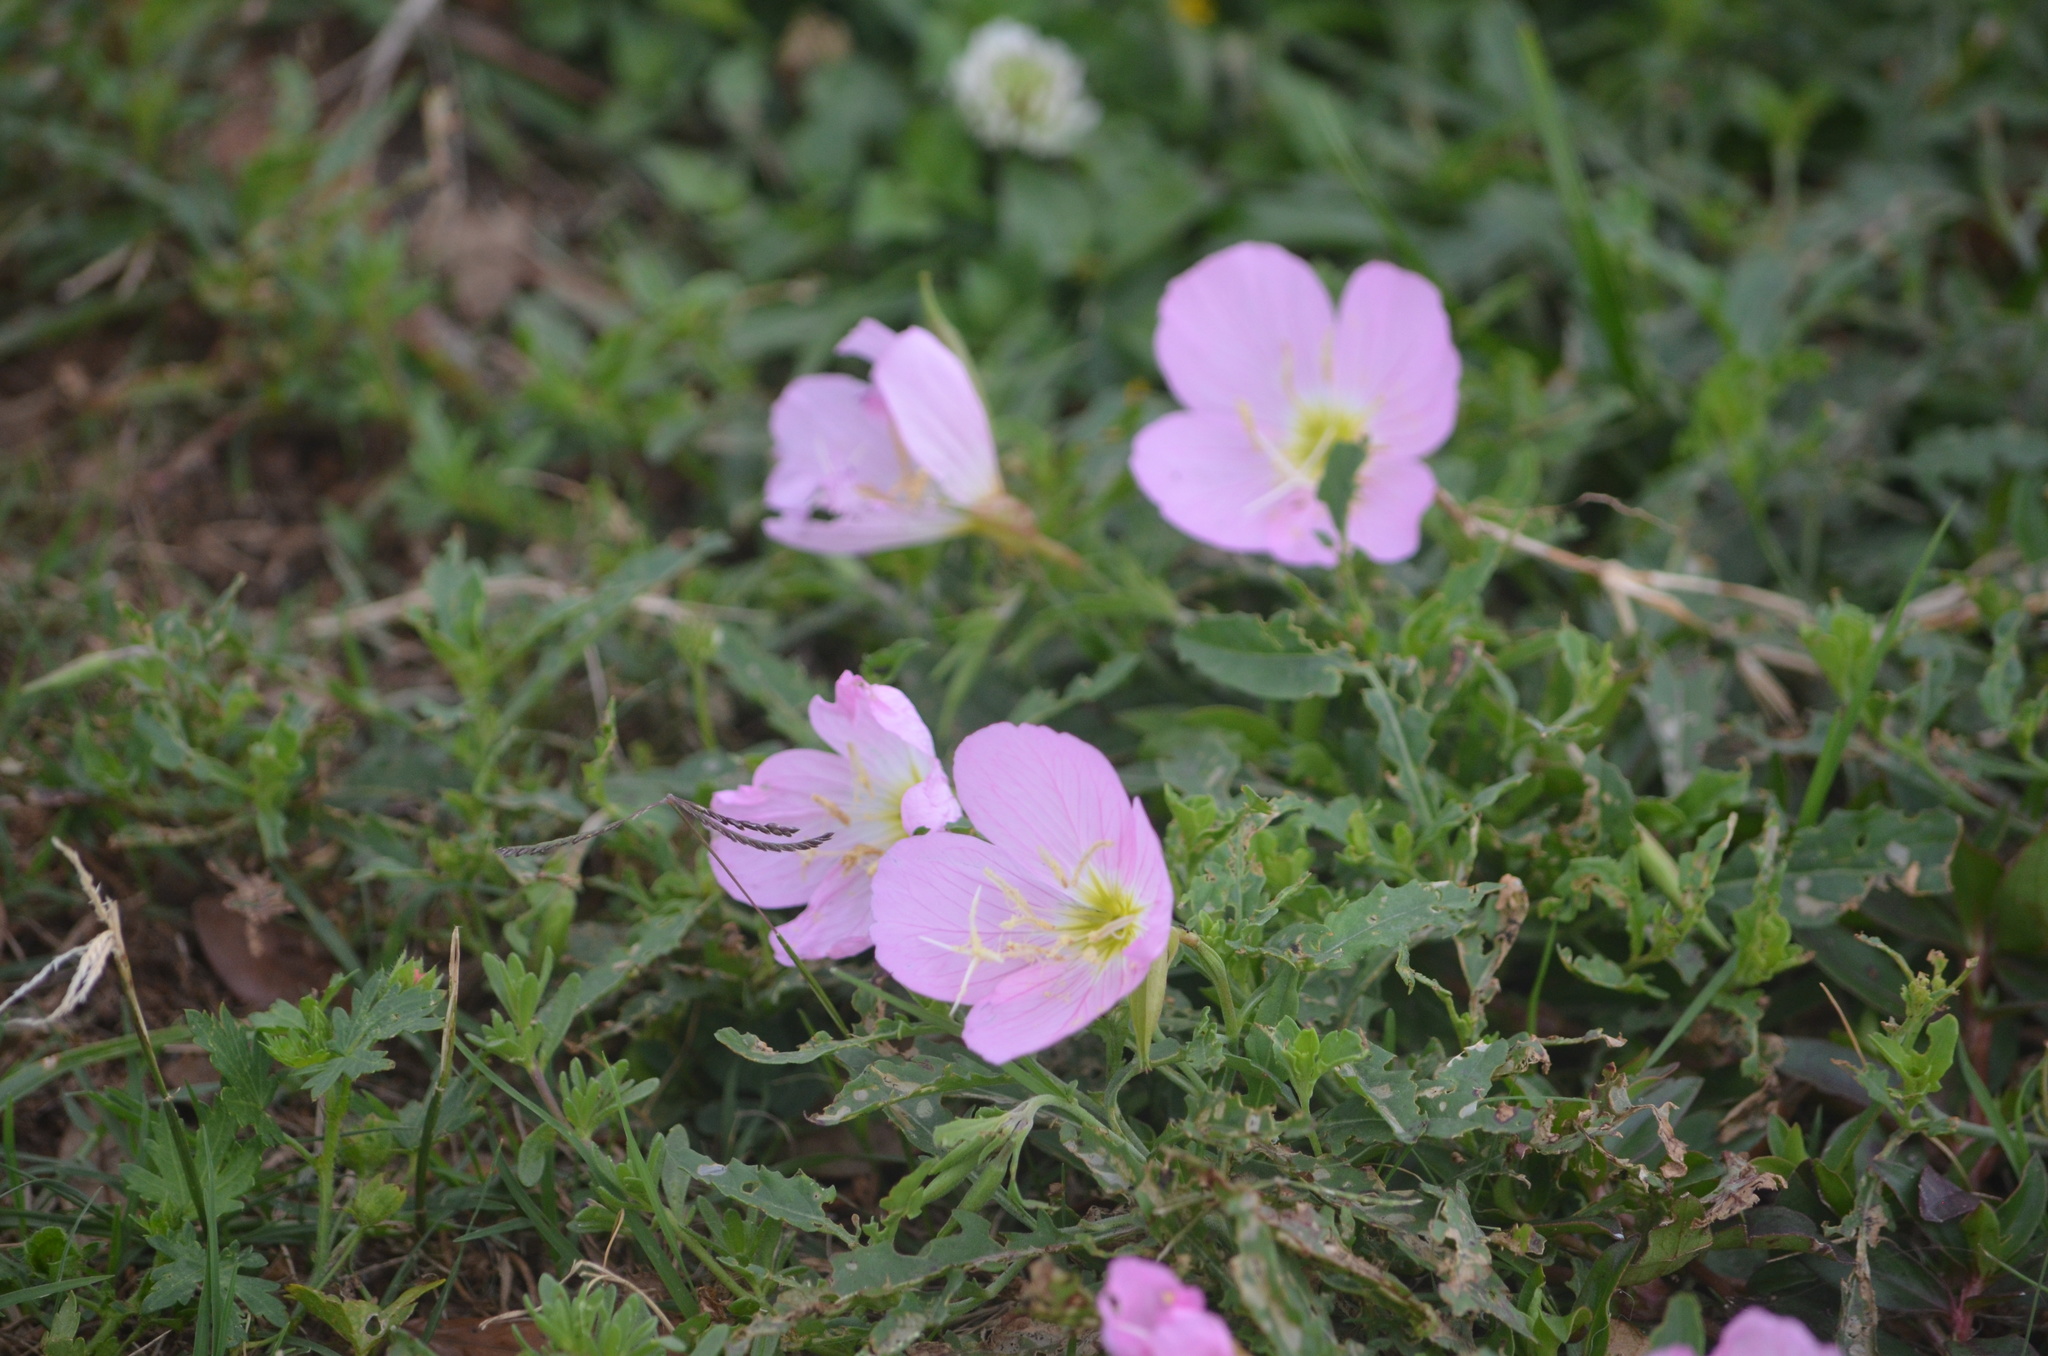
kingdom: Plantae
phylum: Tracheophyta
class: Magnoliopsida
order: Myrtales
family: Onagraceae
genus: Oenothera
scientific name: Oenothera speciosa
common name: White evening-primrose
